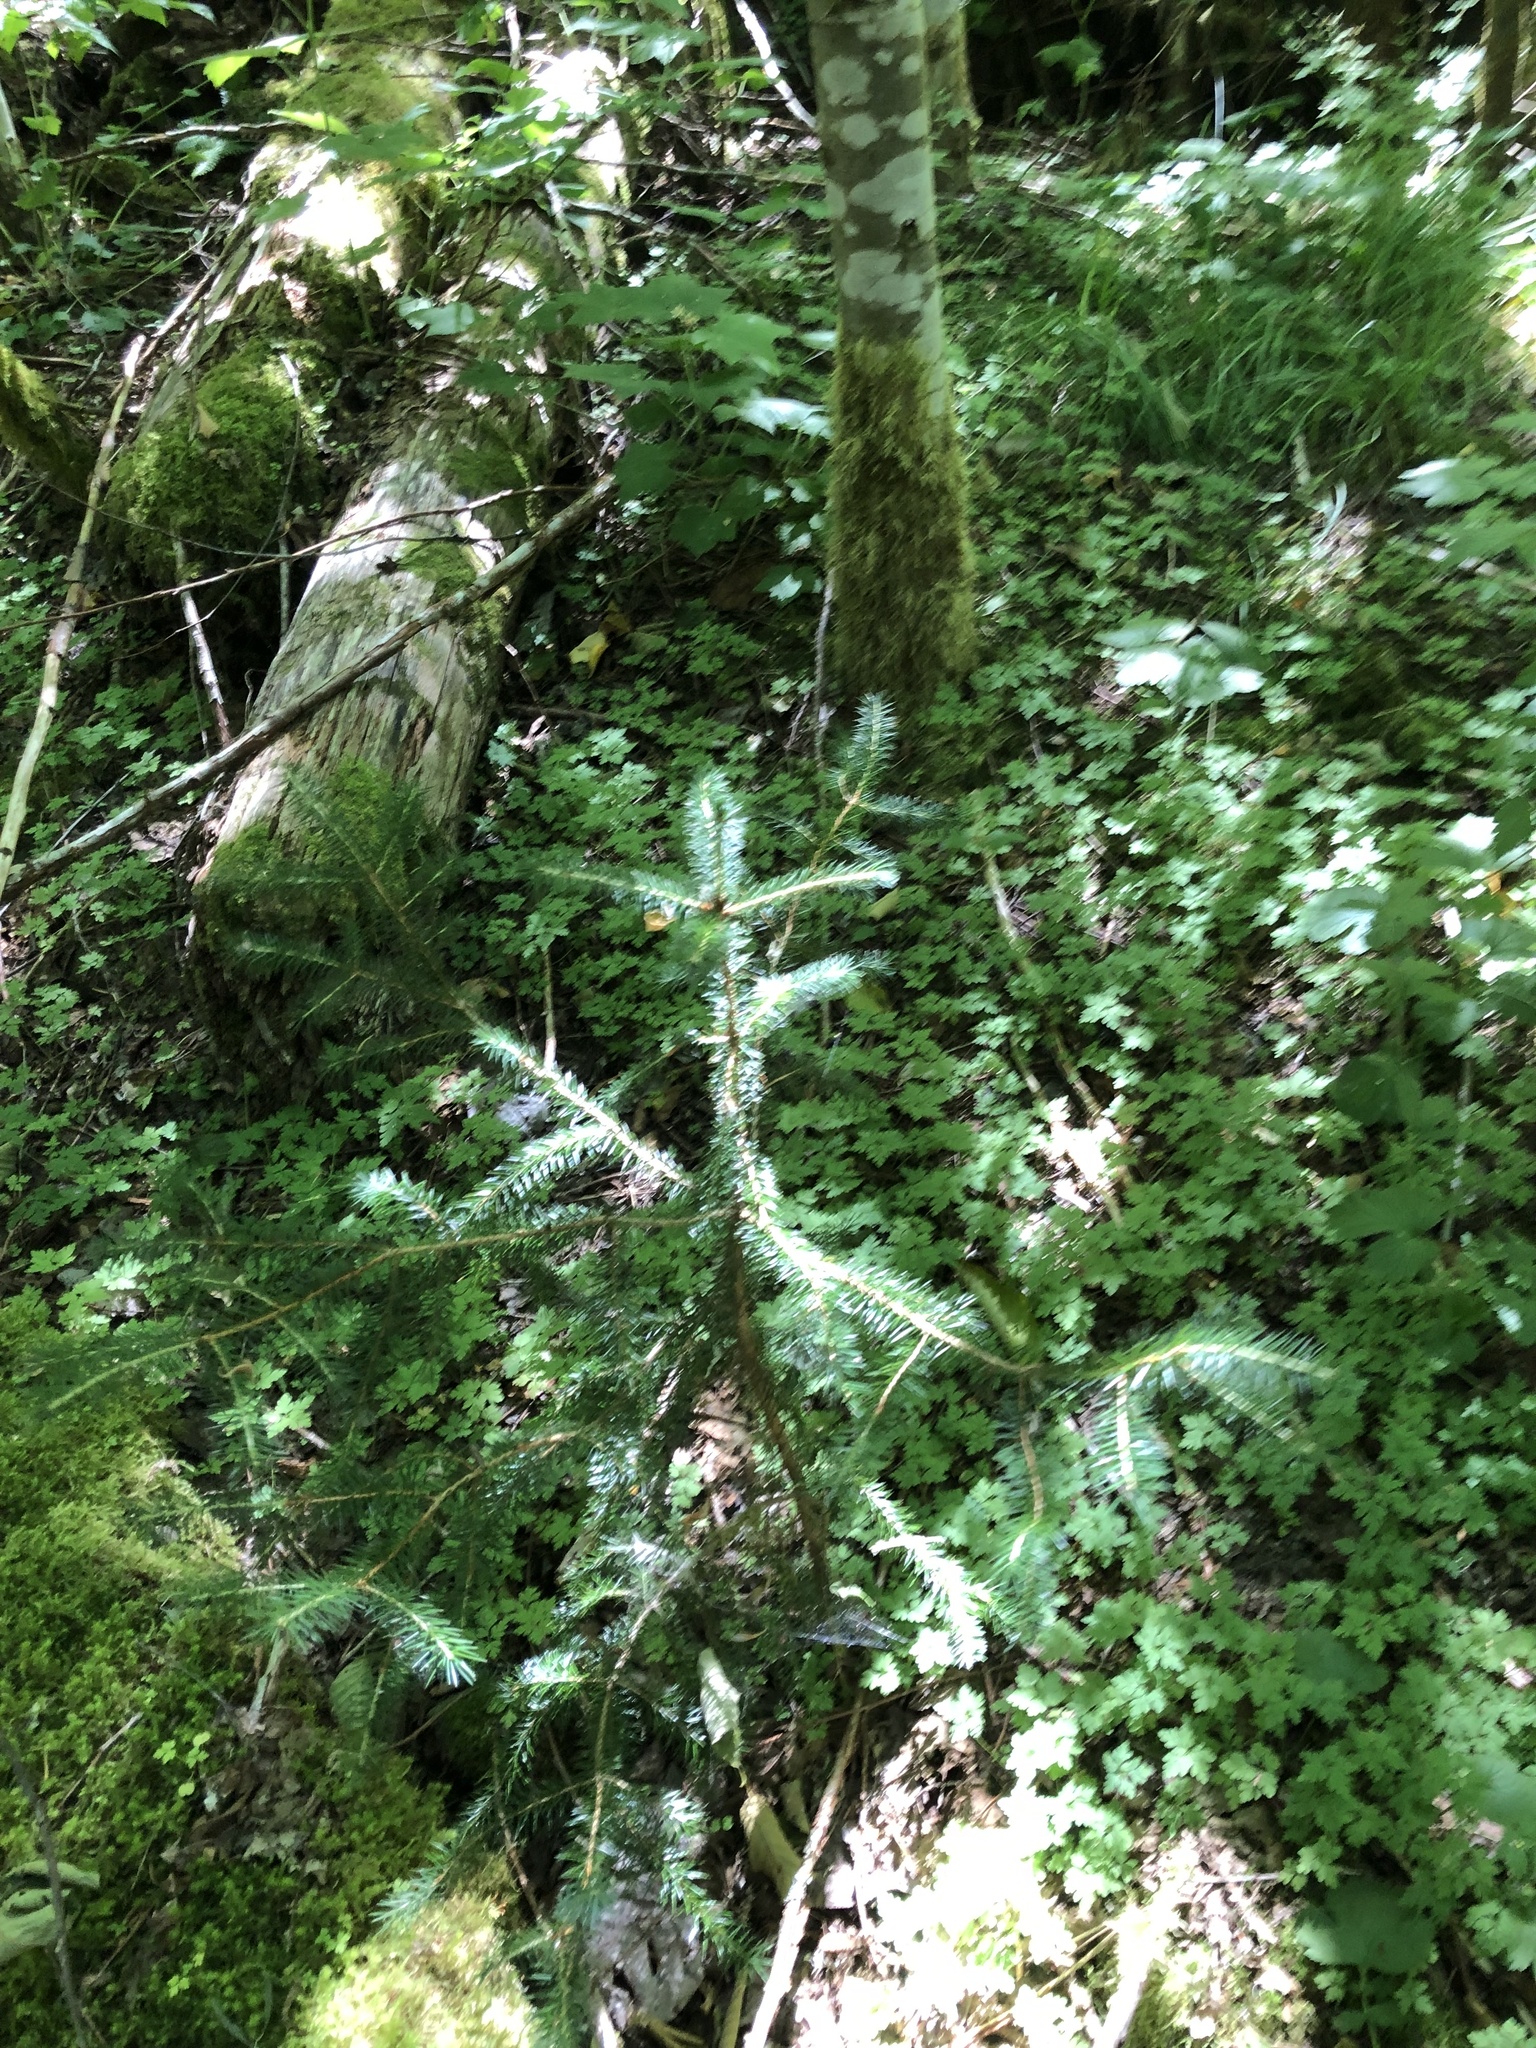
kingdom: Plantae
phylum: Tracheophyta
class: Pinopsida
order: Pinales
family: Pinaceae
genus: Picea
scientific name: Picea sitchensis
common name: Sitka spruce
